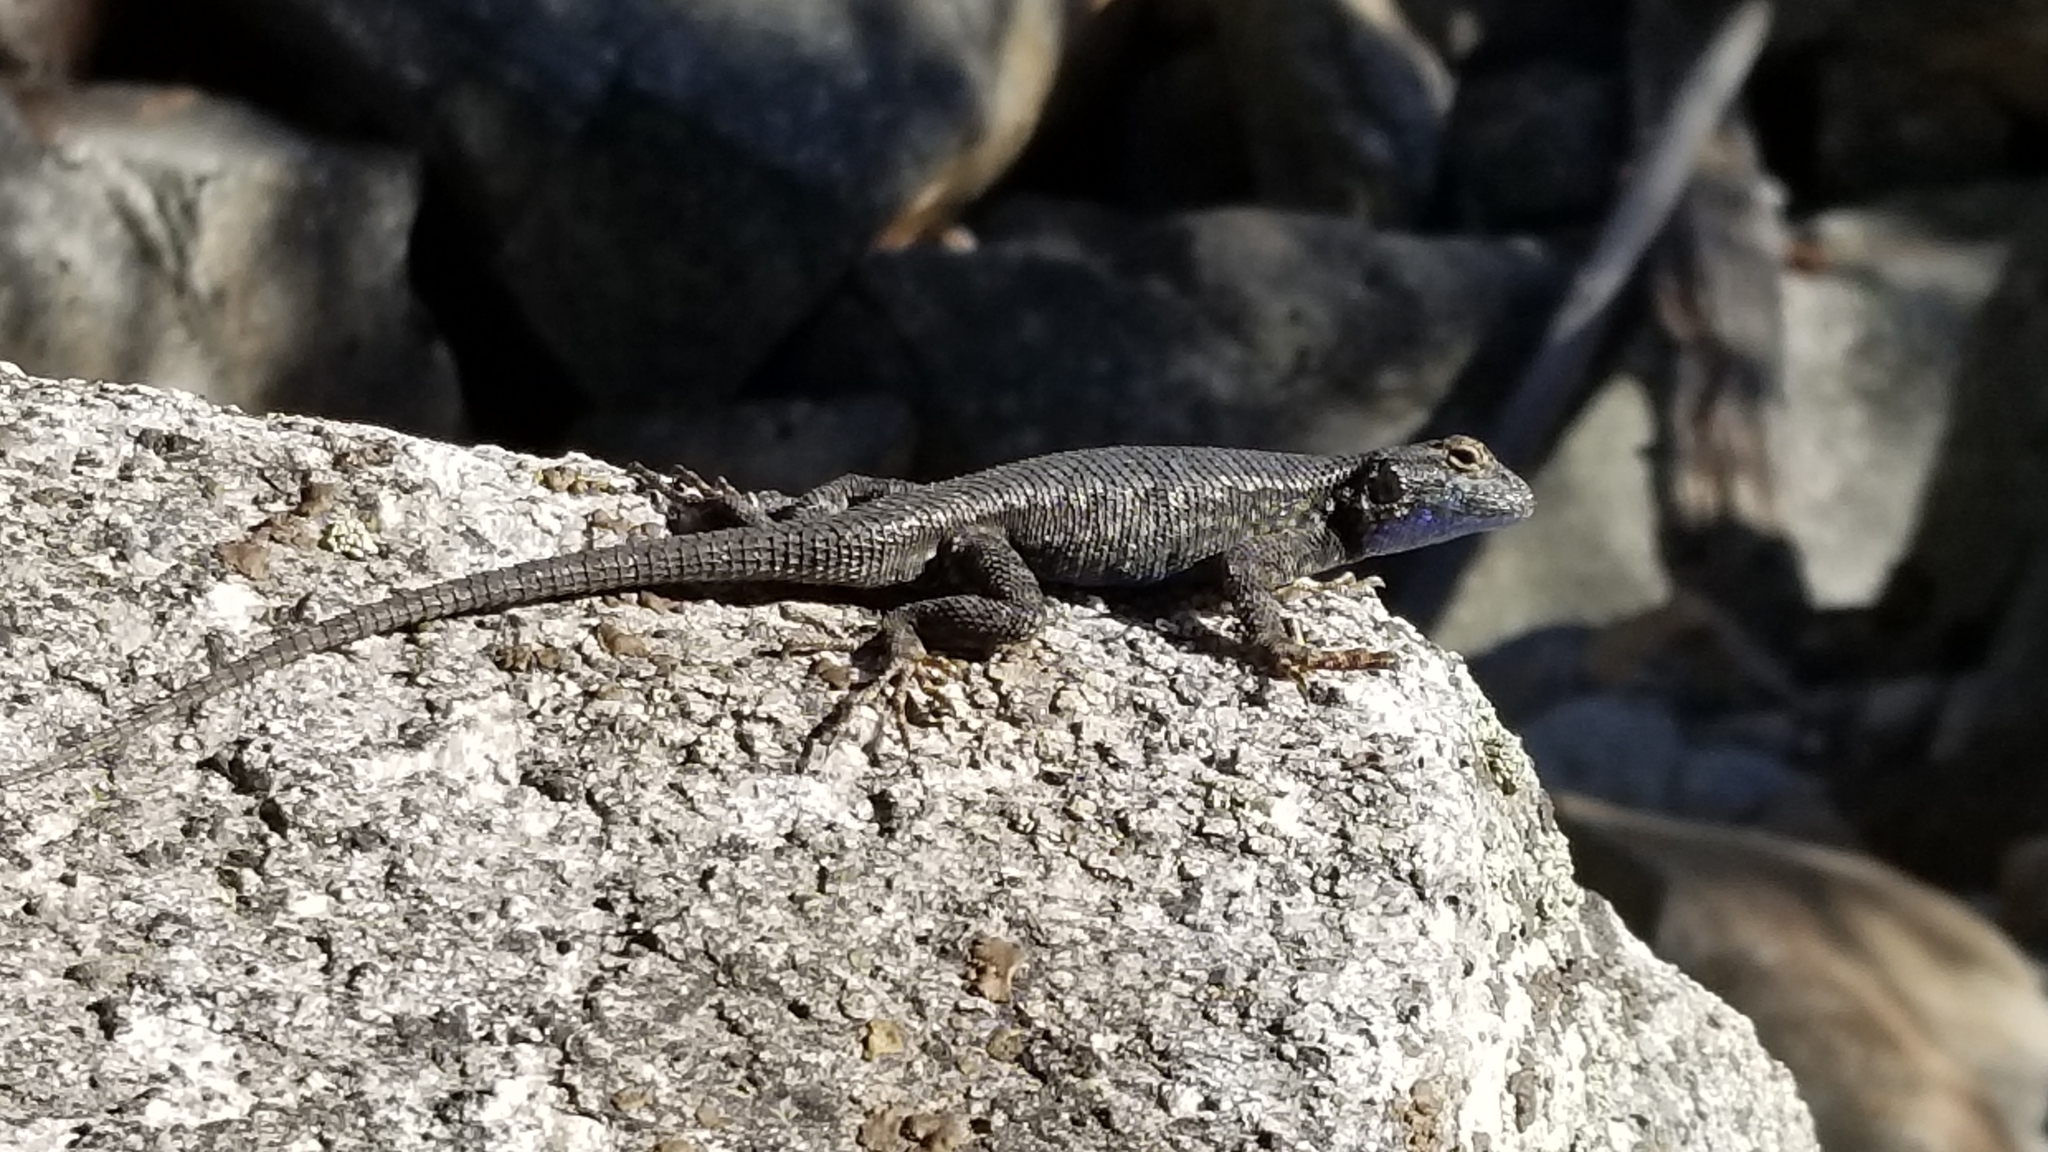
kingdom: Animalia
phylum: Chordata
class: Squamata
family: Phrynosomatidae
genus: Sceloporus
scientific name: Sceloporus graciosus
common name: Sagebrush lizard
